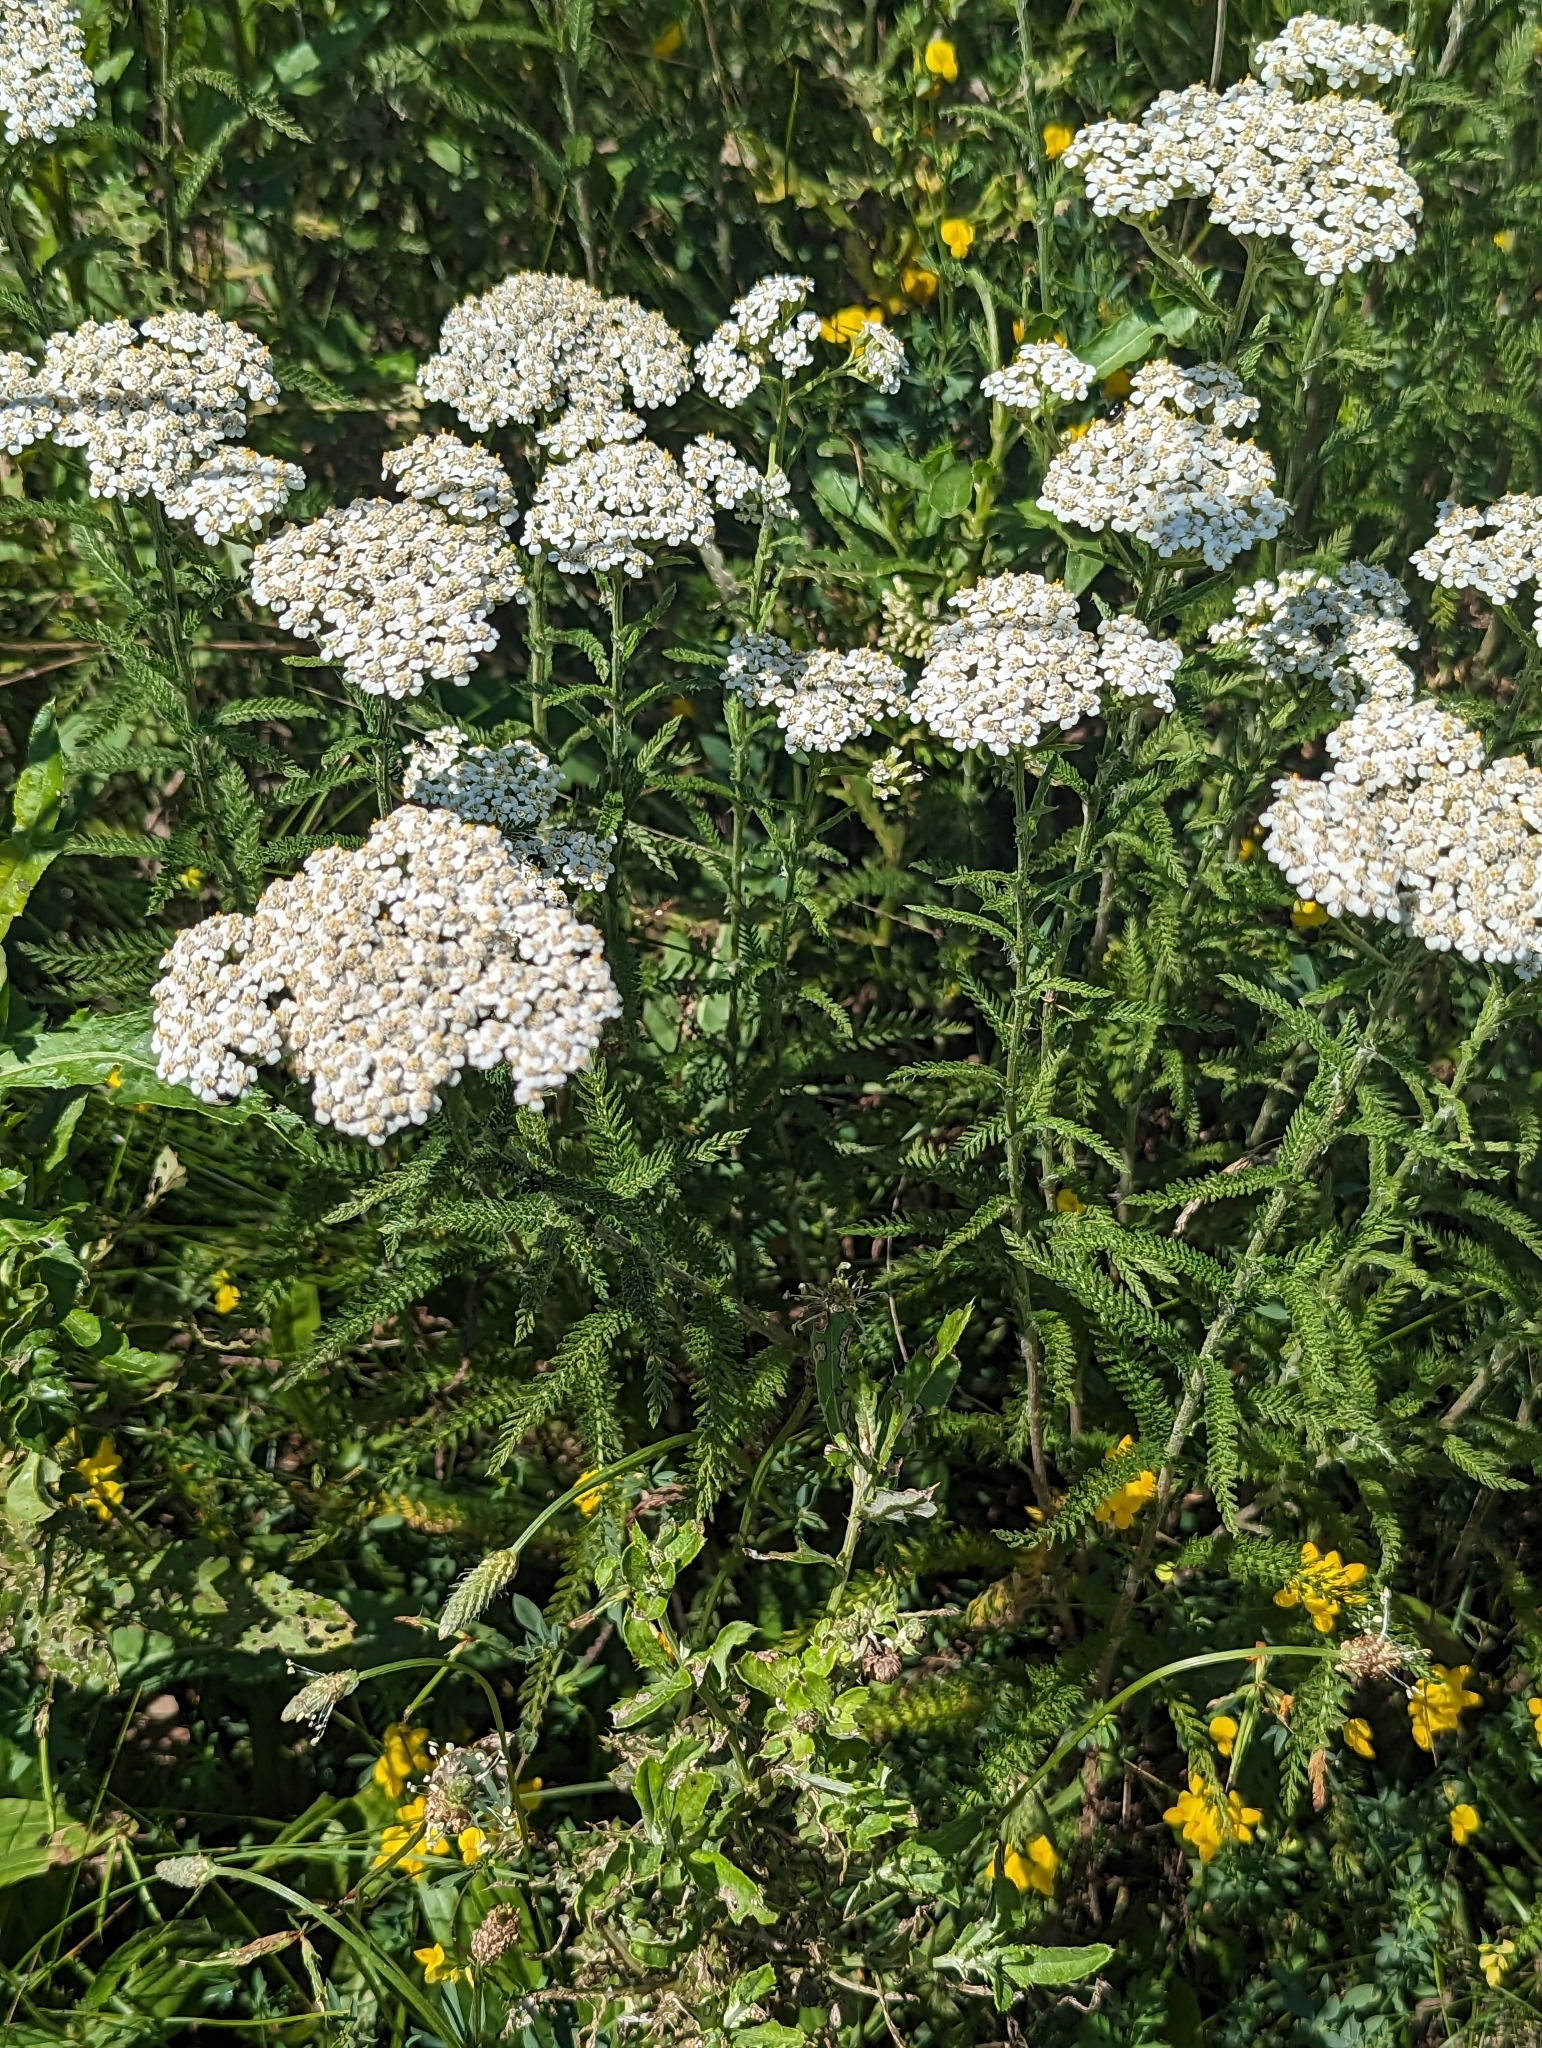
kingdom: Plantae
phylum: Tracheophyta
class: Magnoliopsida
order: Asterales
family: Asteraceae
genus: Achillea
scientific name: Achillea millefolium
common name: Yarrow
